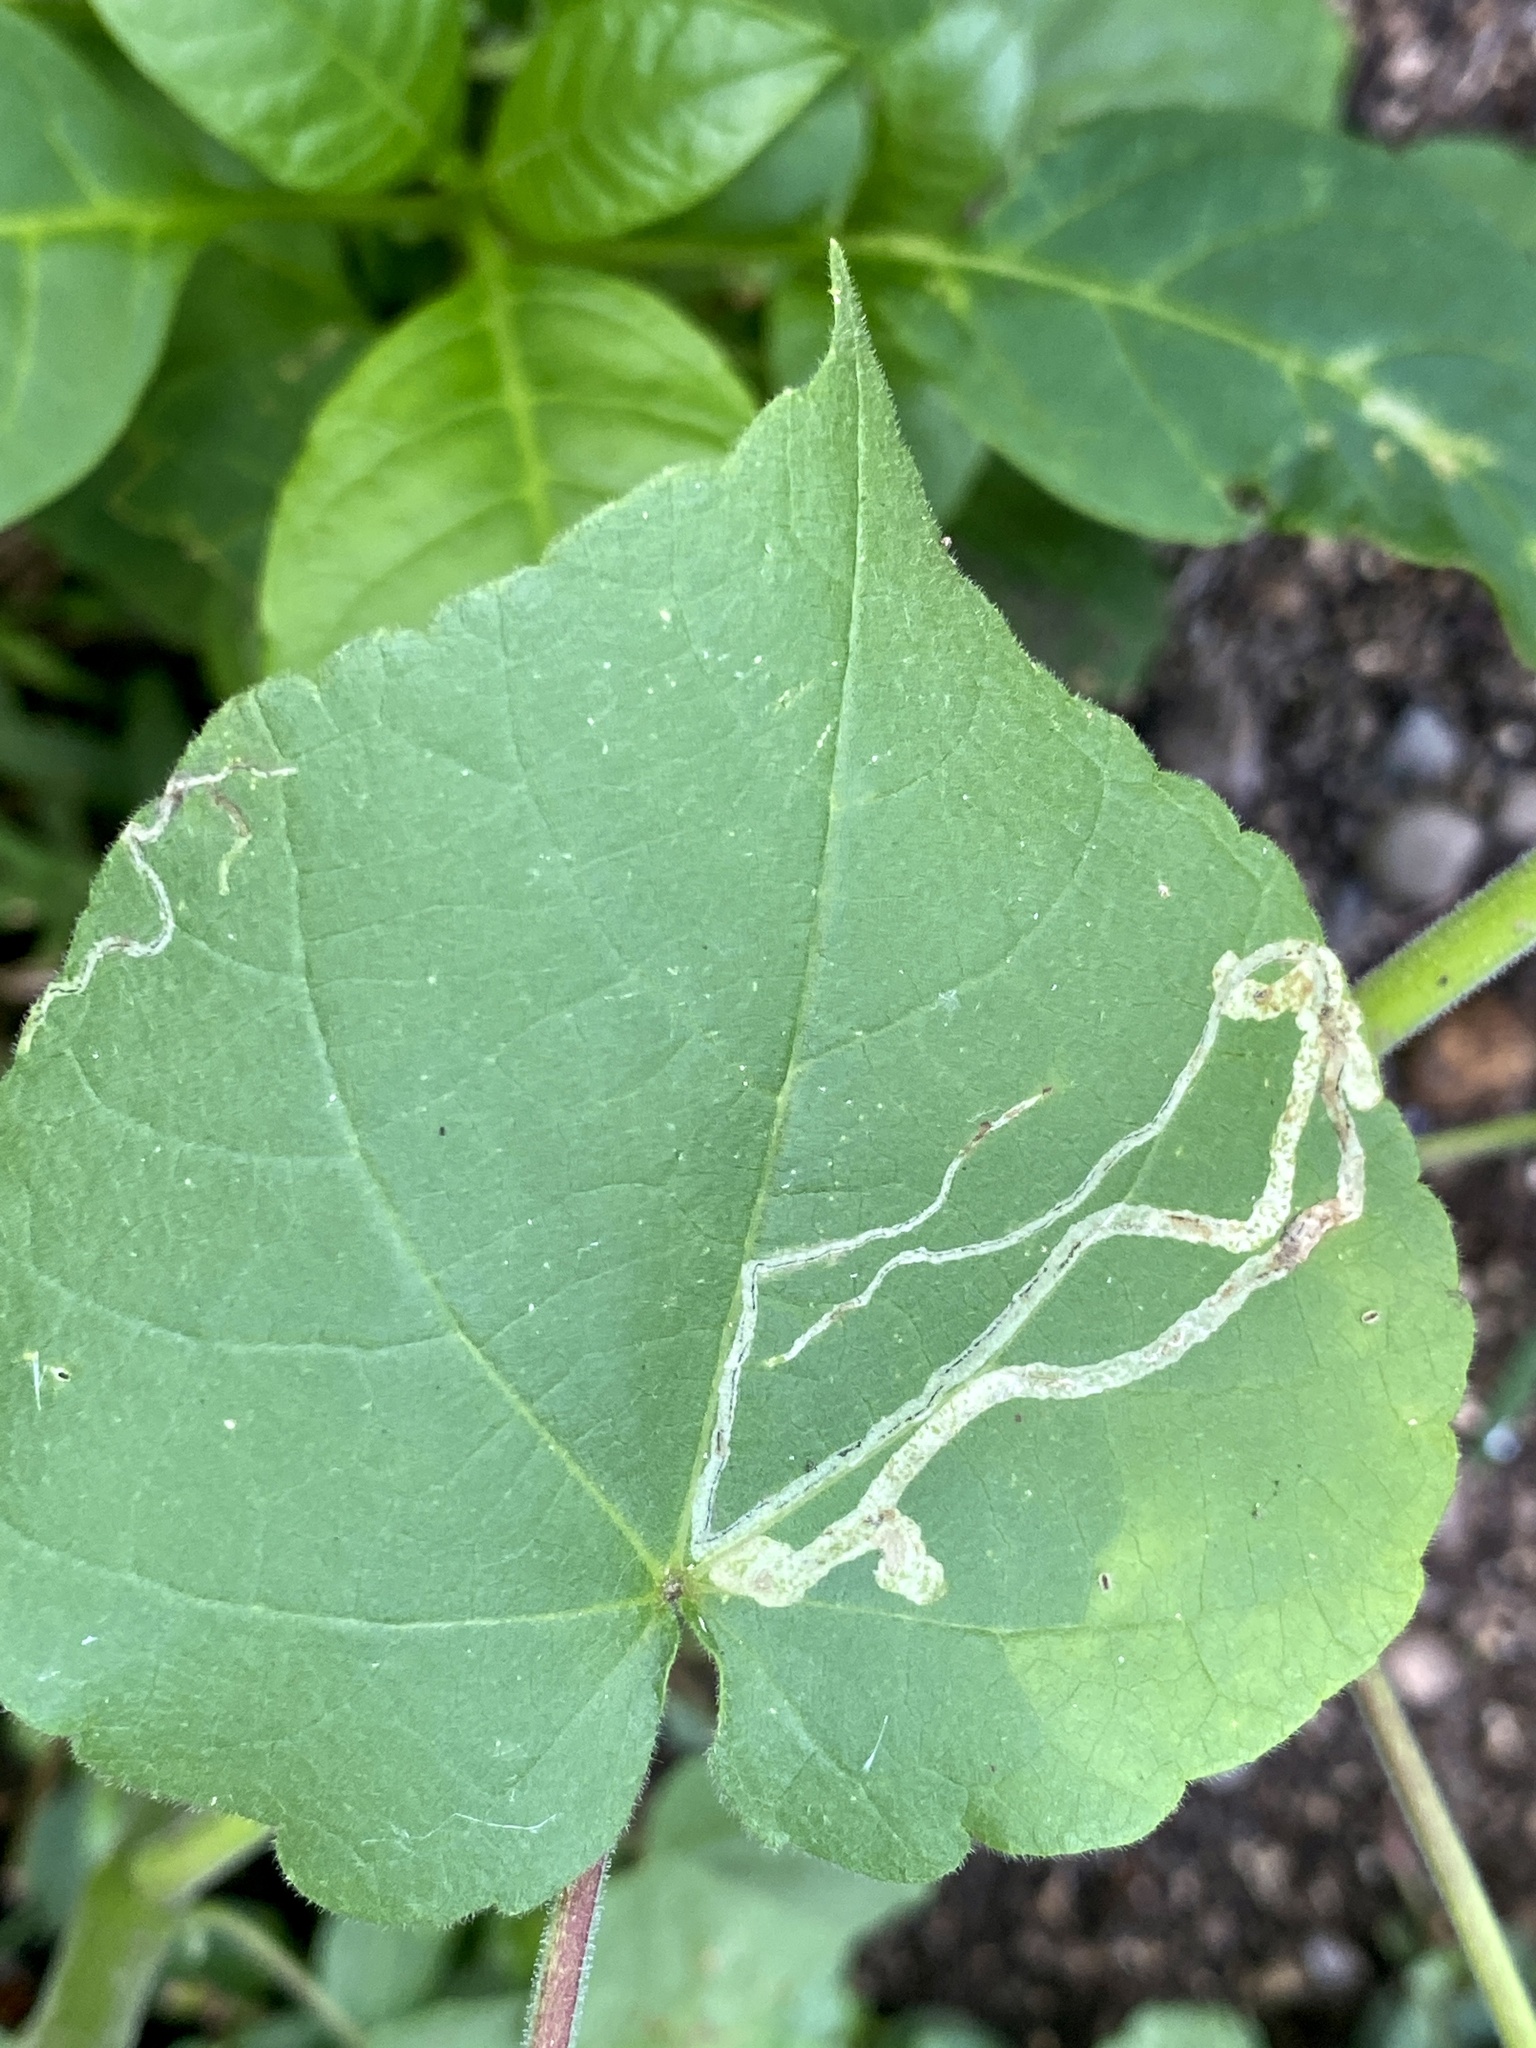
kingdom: Animalia
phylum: Arthropoda
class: Insecta
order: Diptera
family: Agromyzidae
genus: Calycomyza
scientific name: Calycomyza malvae
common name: Mallow leaf miner
